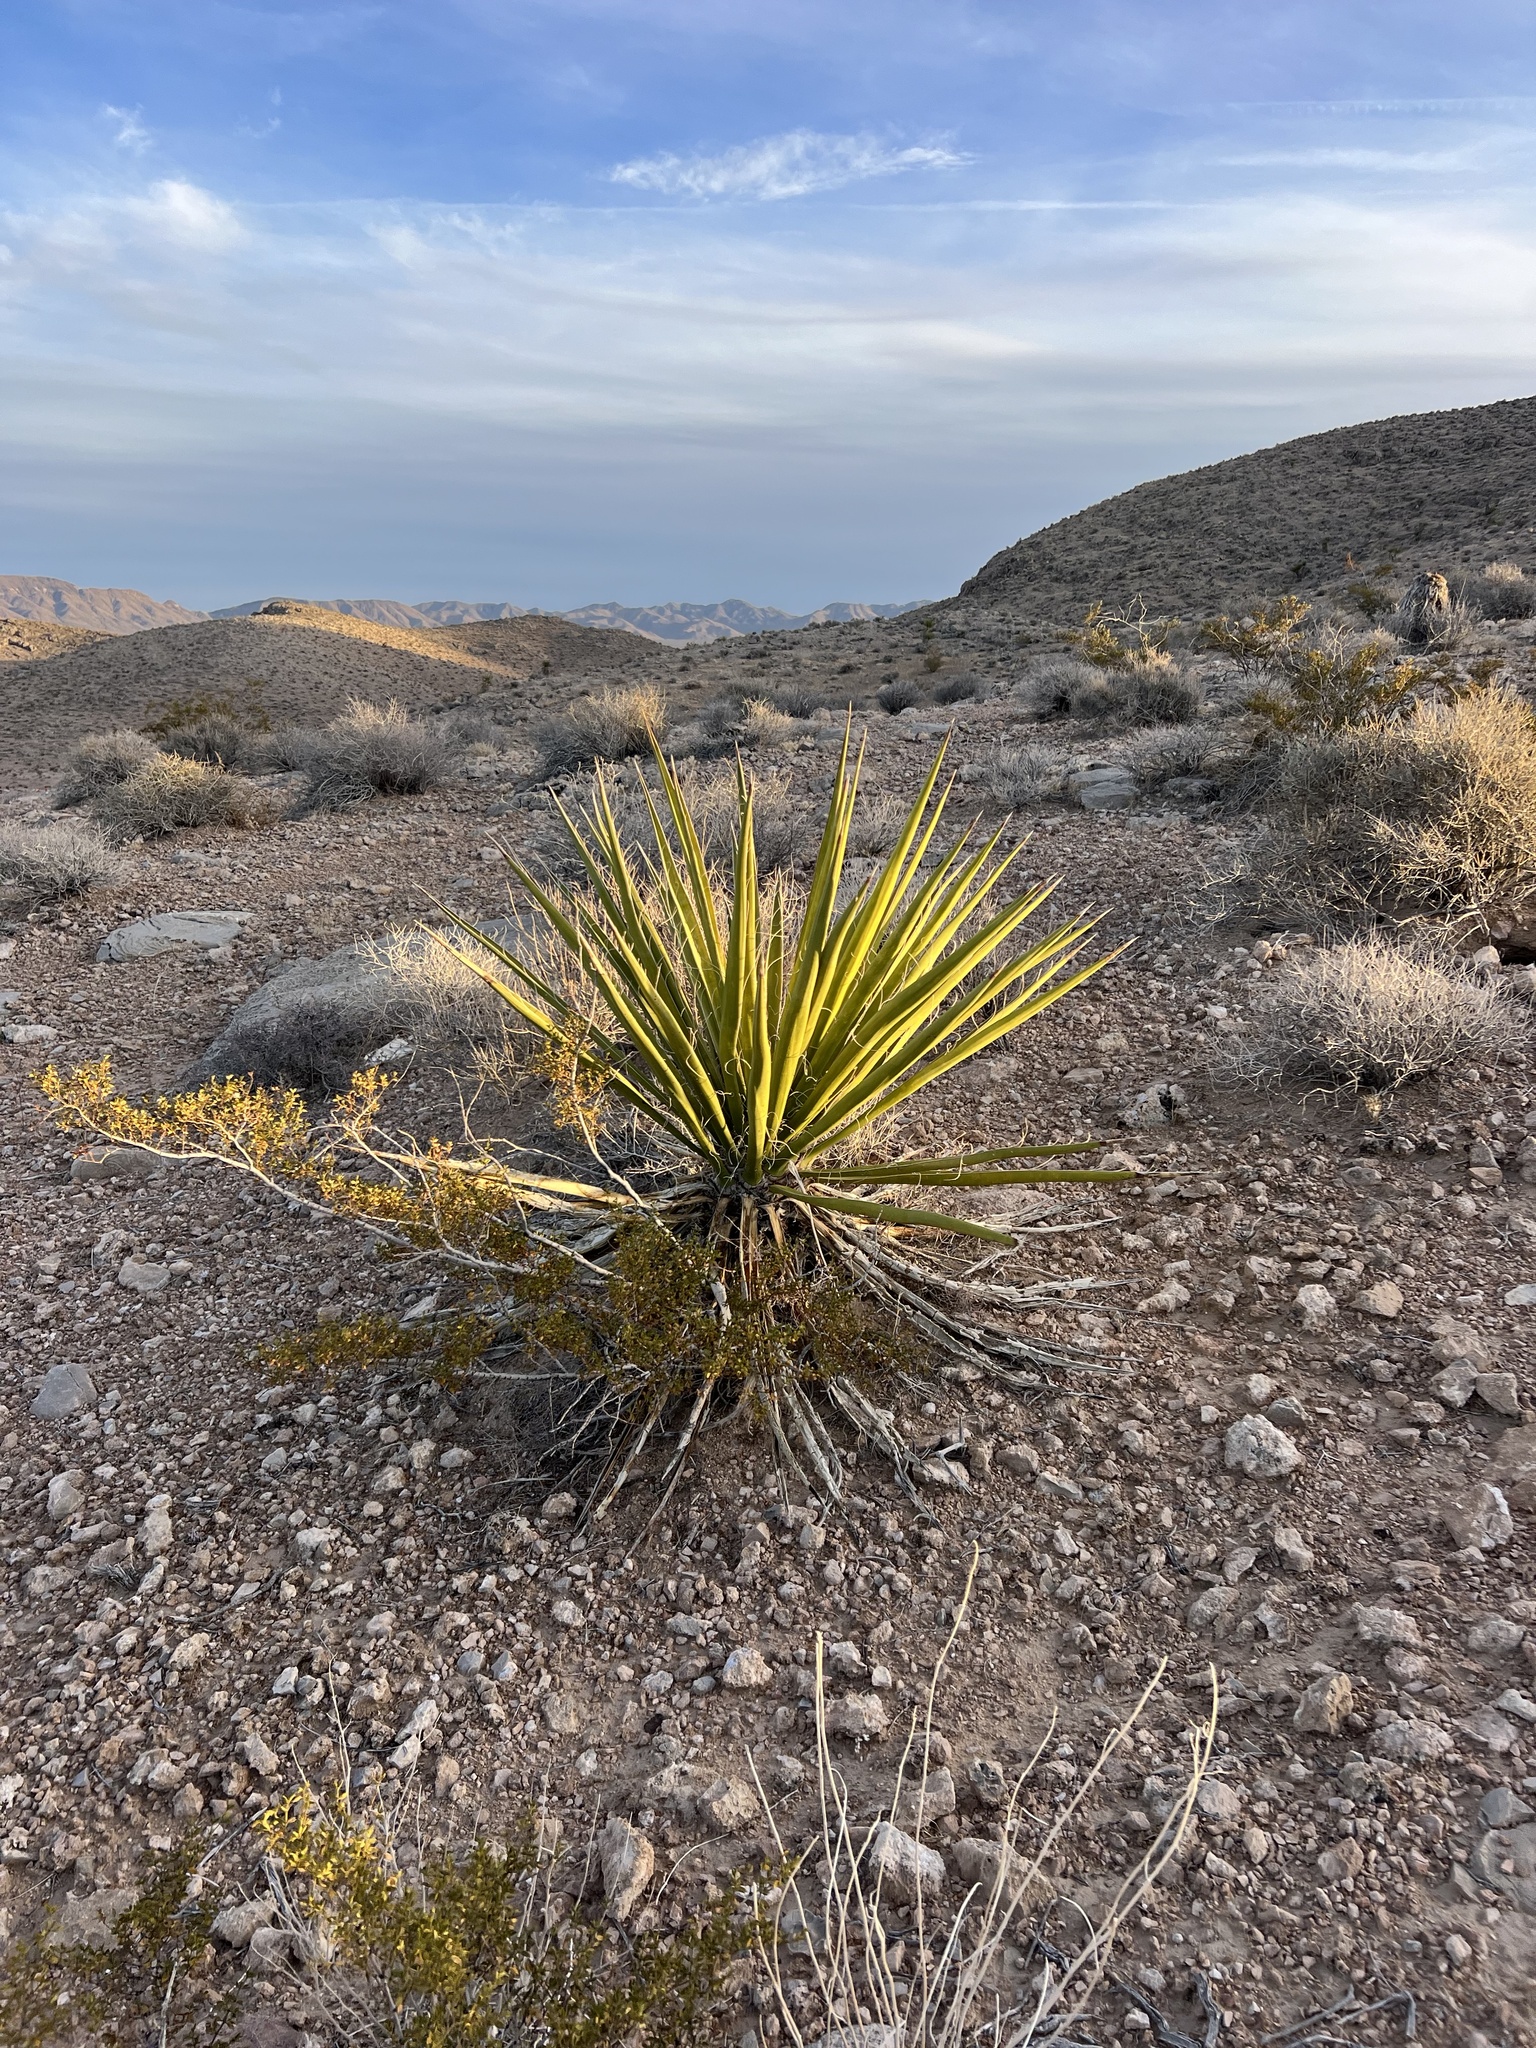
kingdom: Plantae
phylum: Tracheophyta
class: Liliopsida
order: Asparagales
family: Asparagaceae
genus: Yucca
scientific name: Yucca schidigera
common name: Mojave yucca
